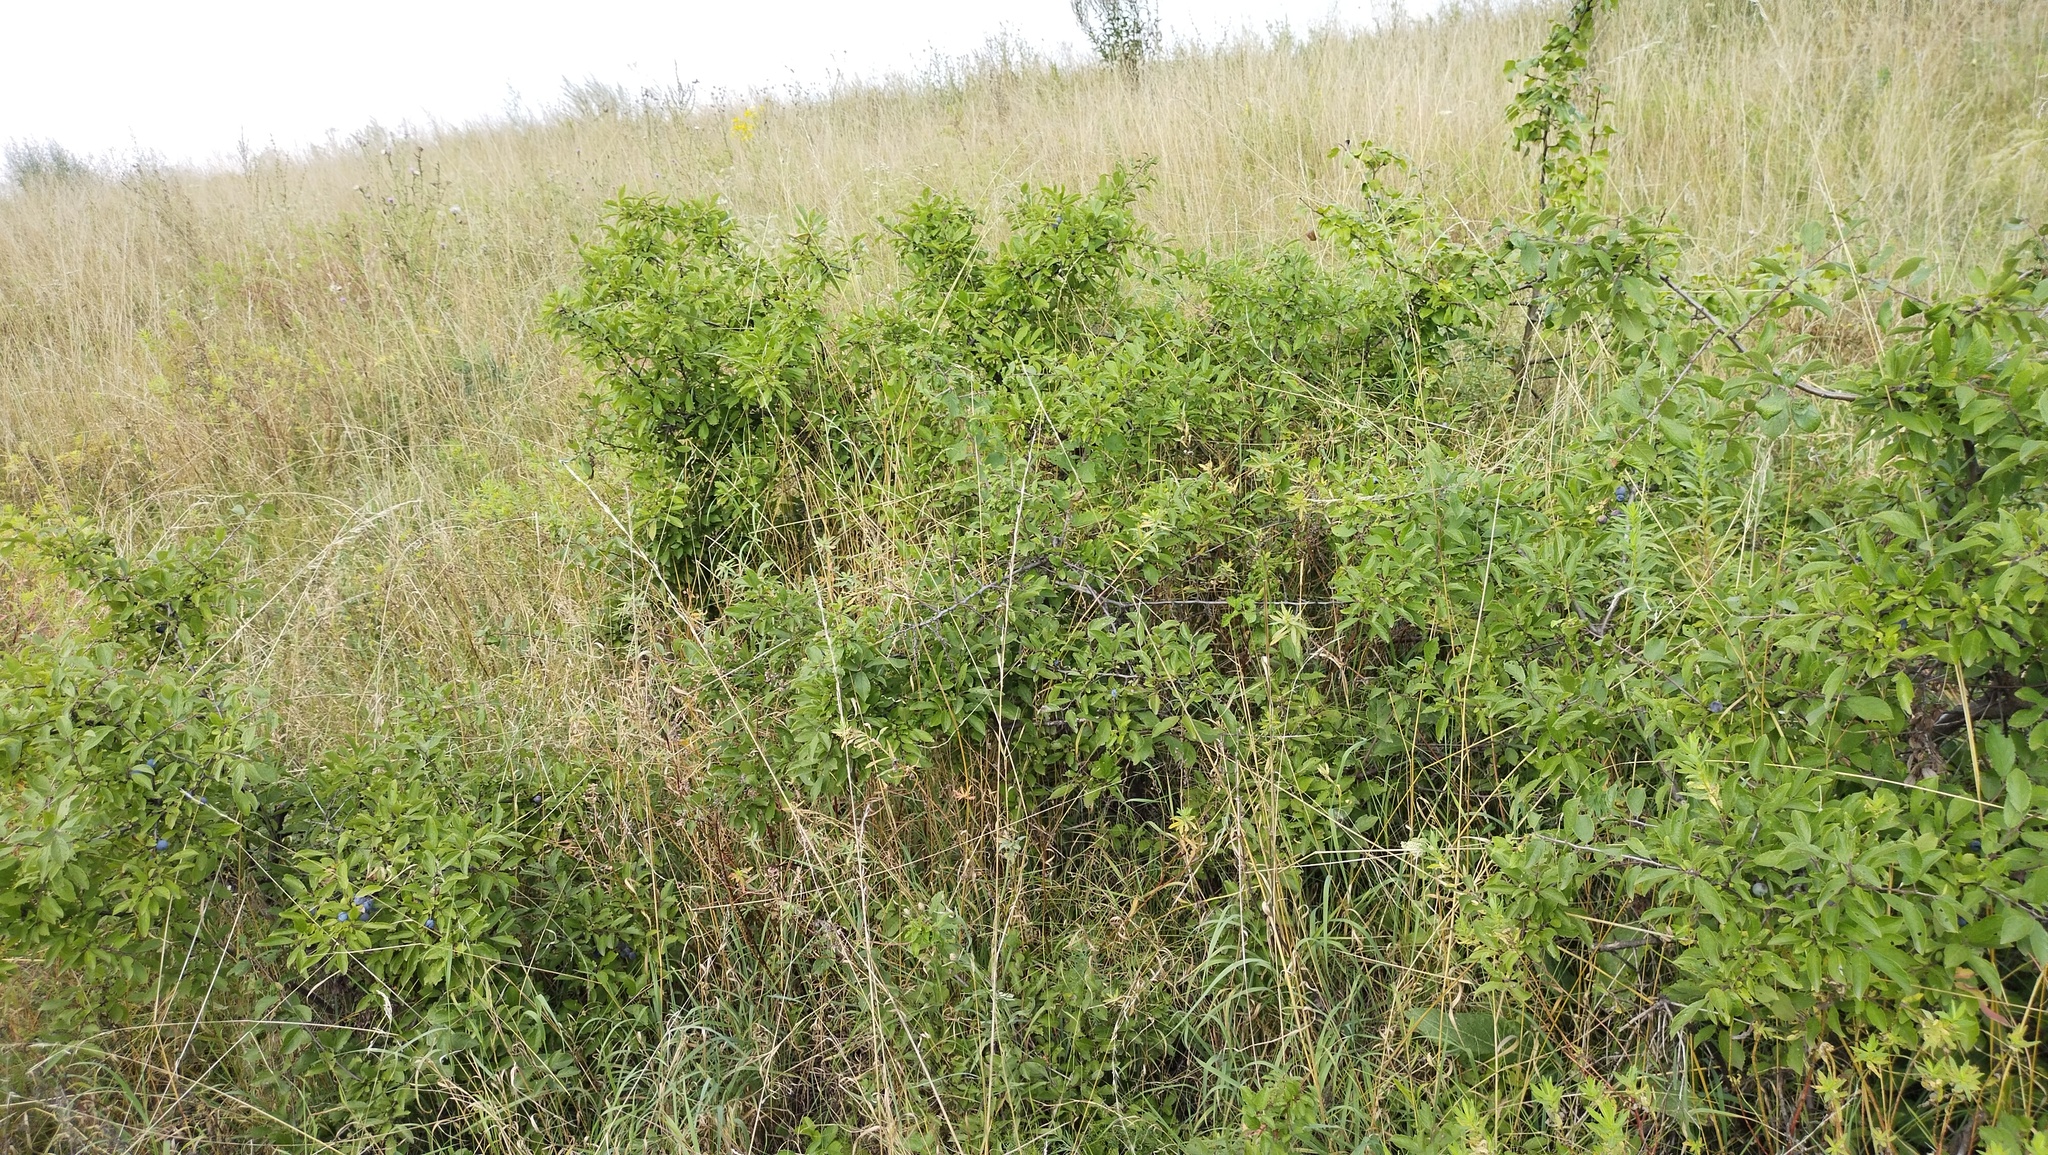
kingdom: Plantae
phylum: Tracheophyta
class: Magnoliopsida
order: Rosales
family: Rosaceae
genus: Prunus
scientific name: Prunus spinosa
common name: Blackthorn
